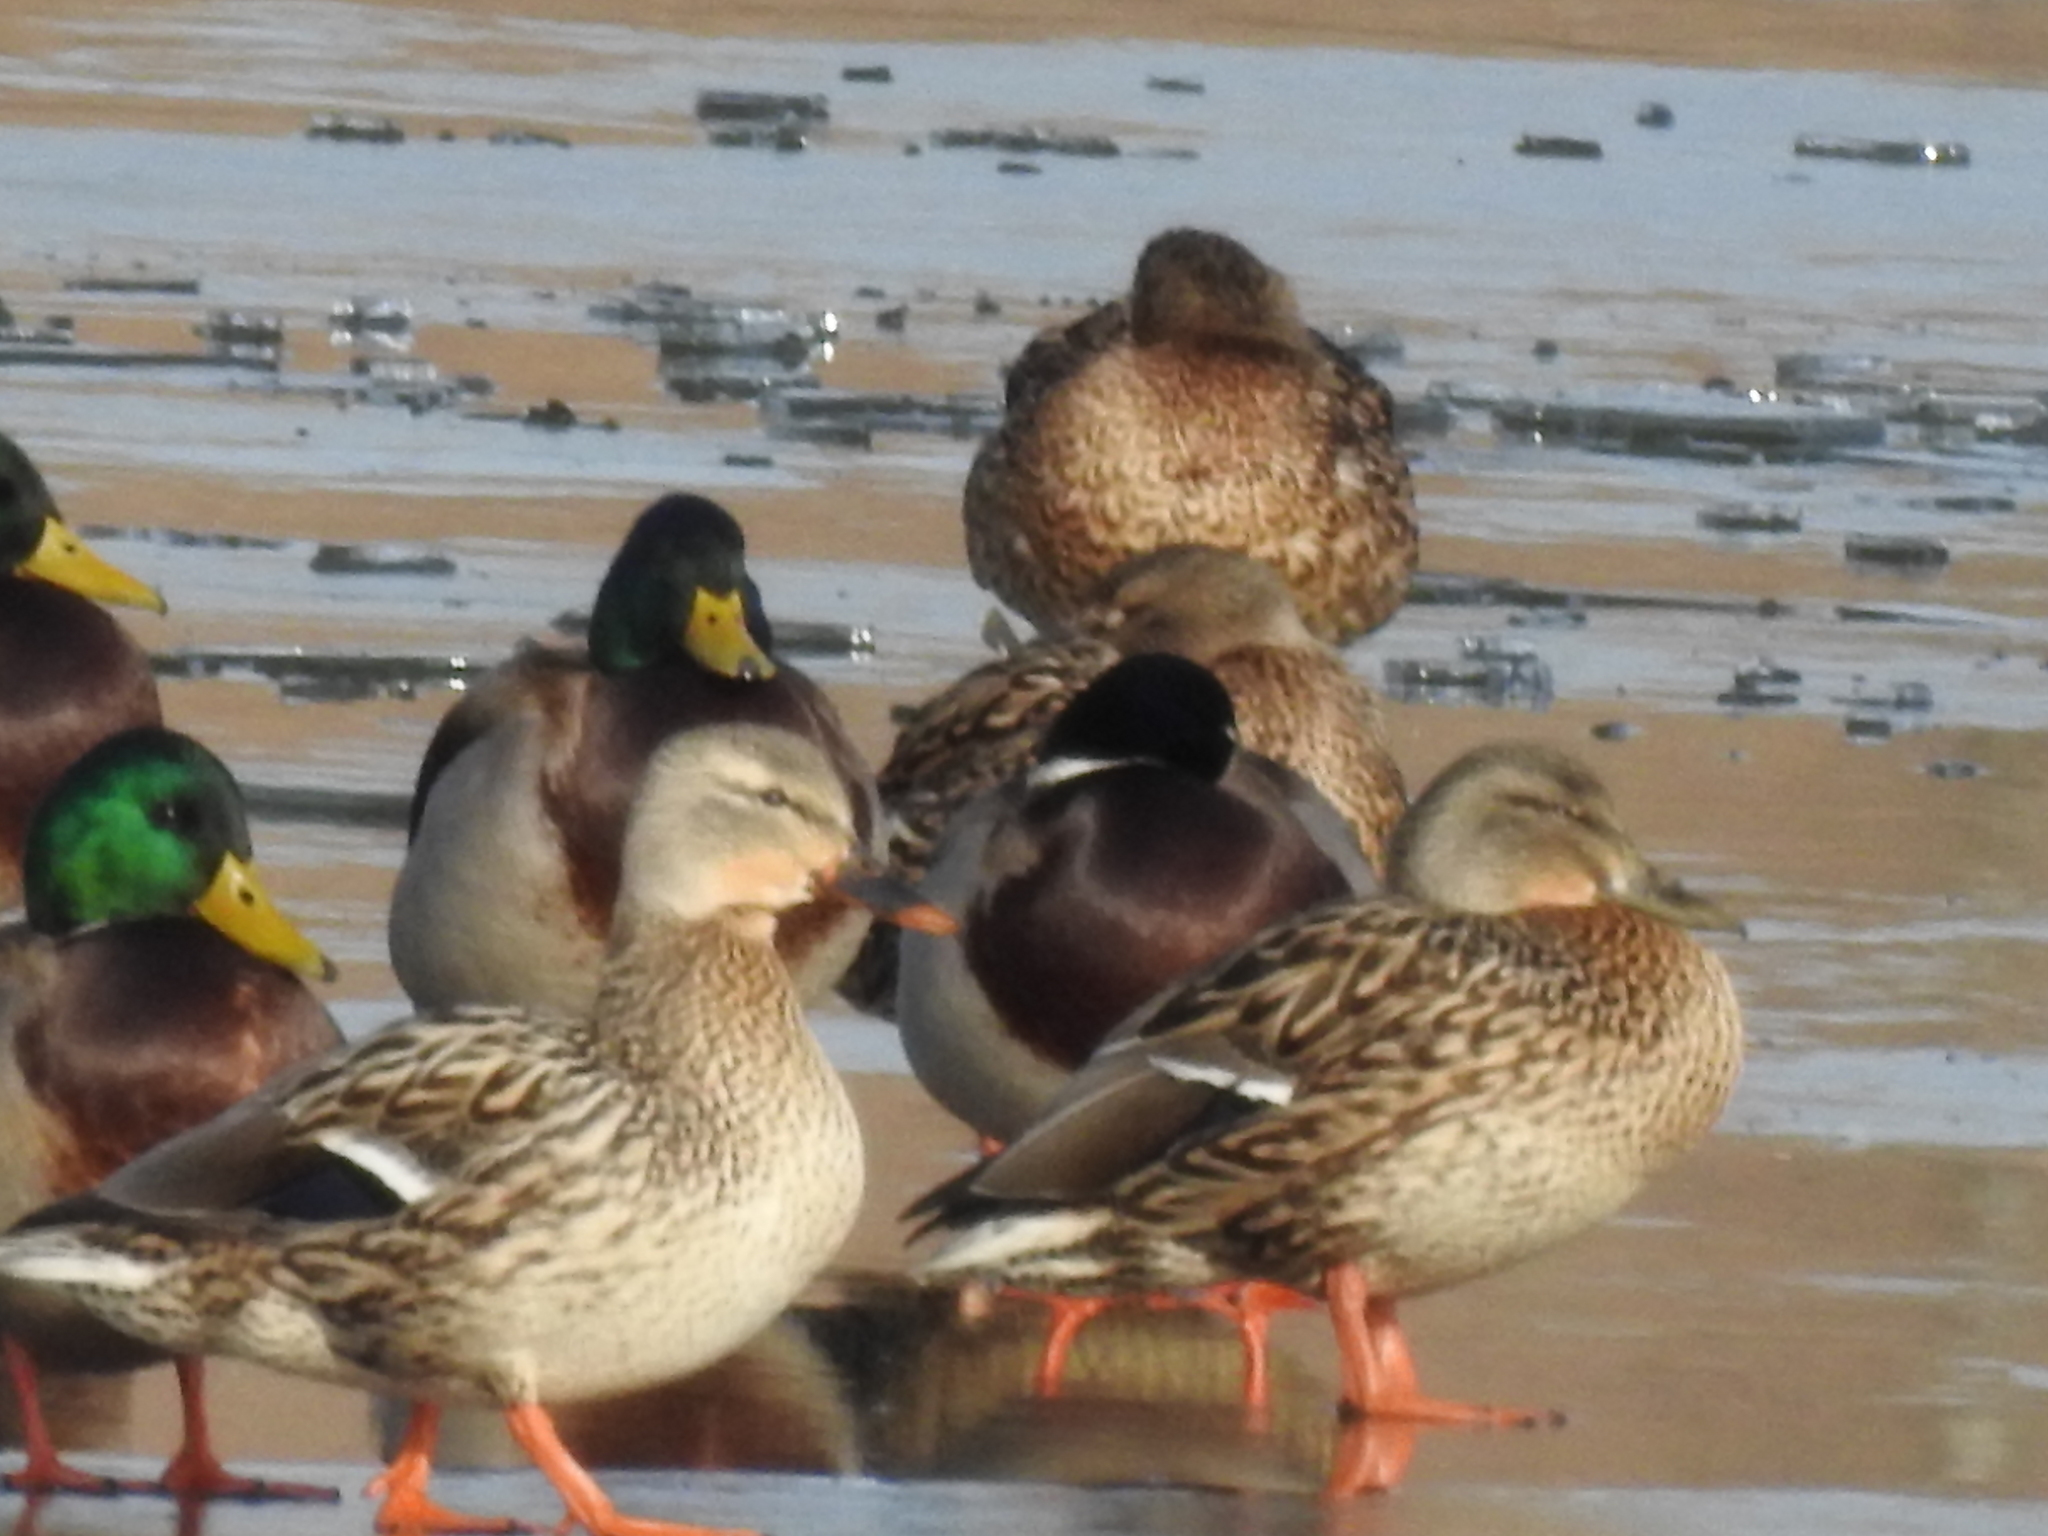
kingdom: Animalia
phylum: Chordata
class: Aves
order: Anseriformes
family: Anatidae
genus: Anas
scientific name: Anas platyrhynchos
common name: Mallard
